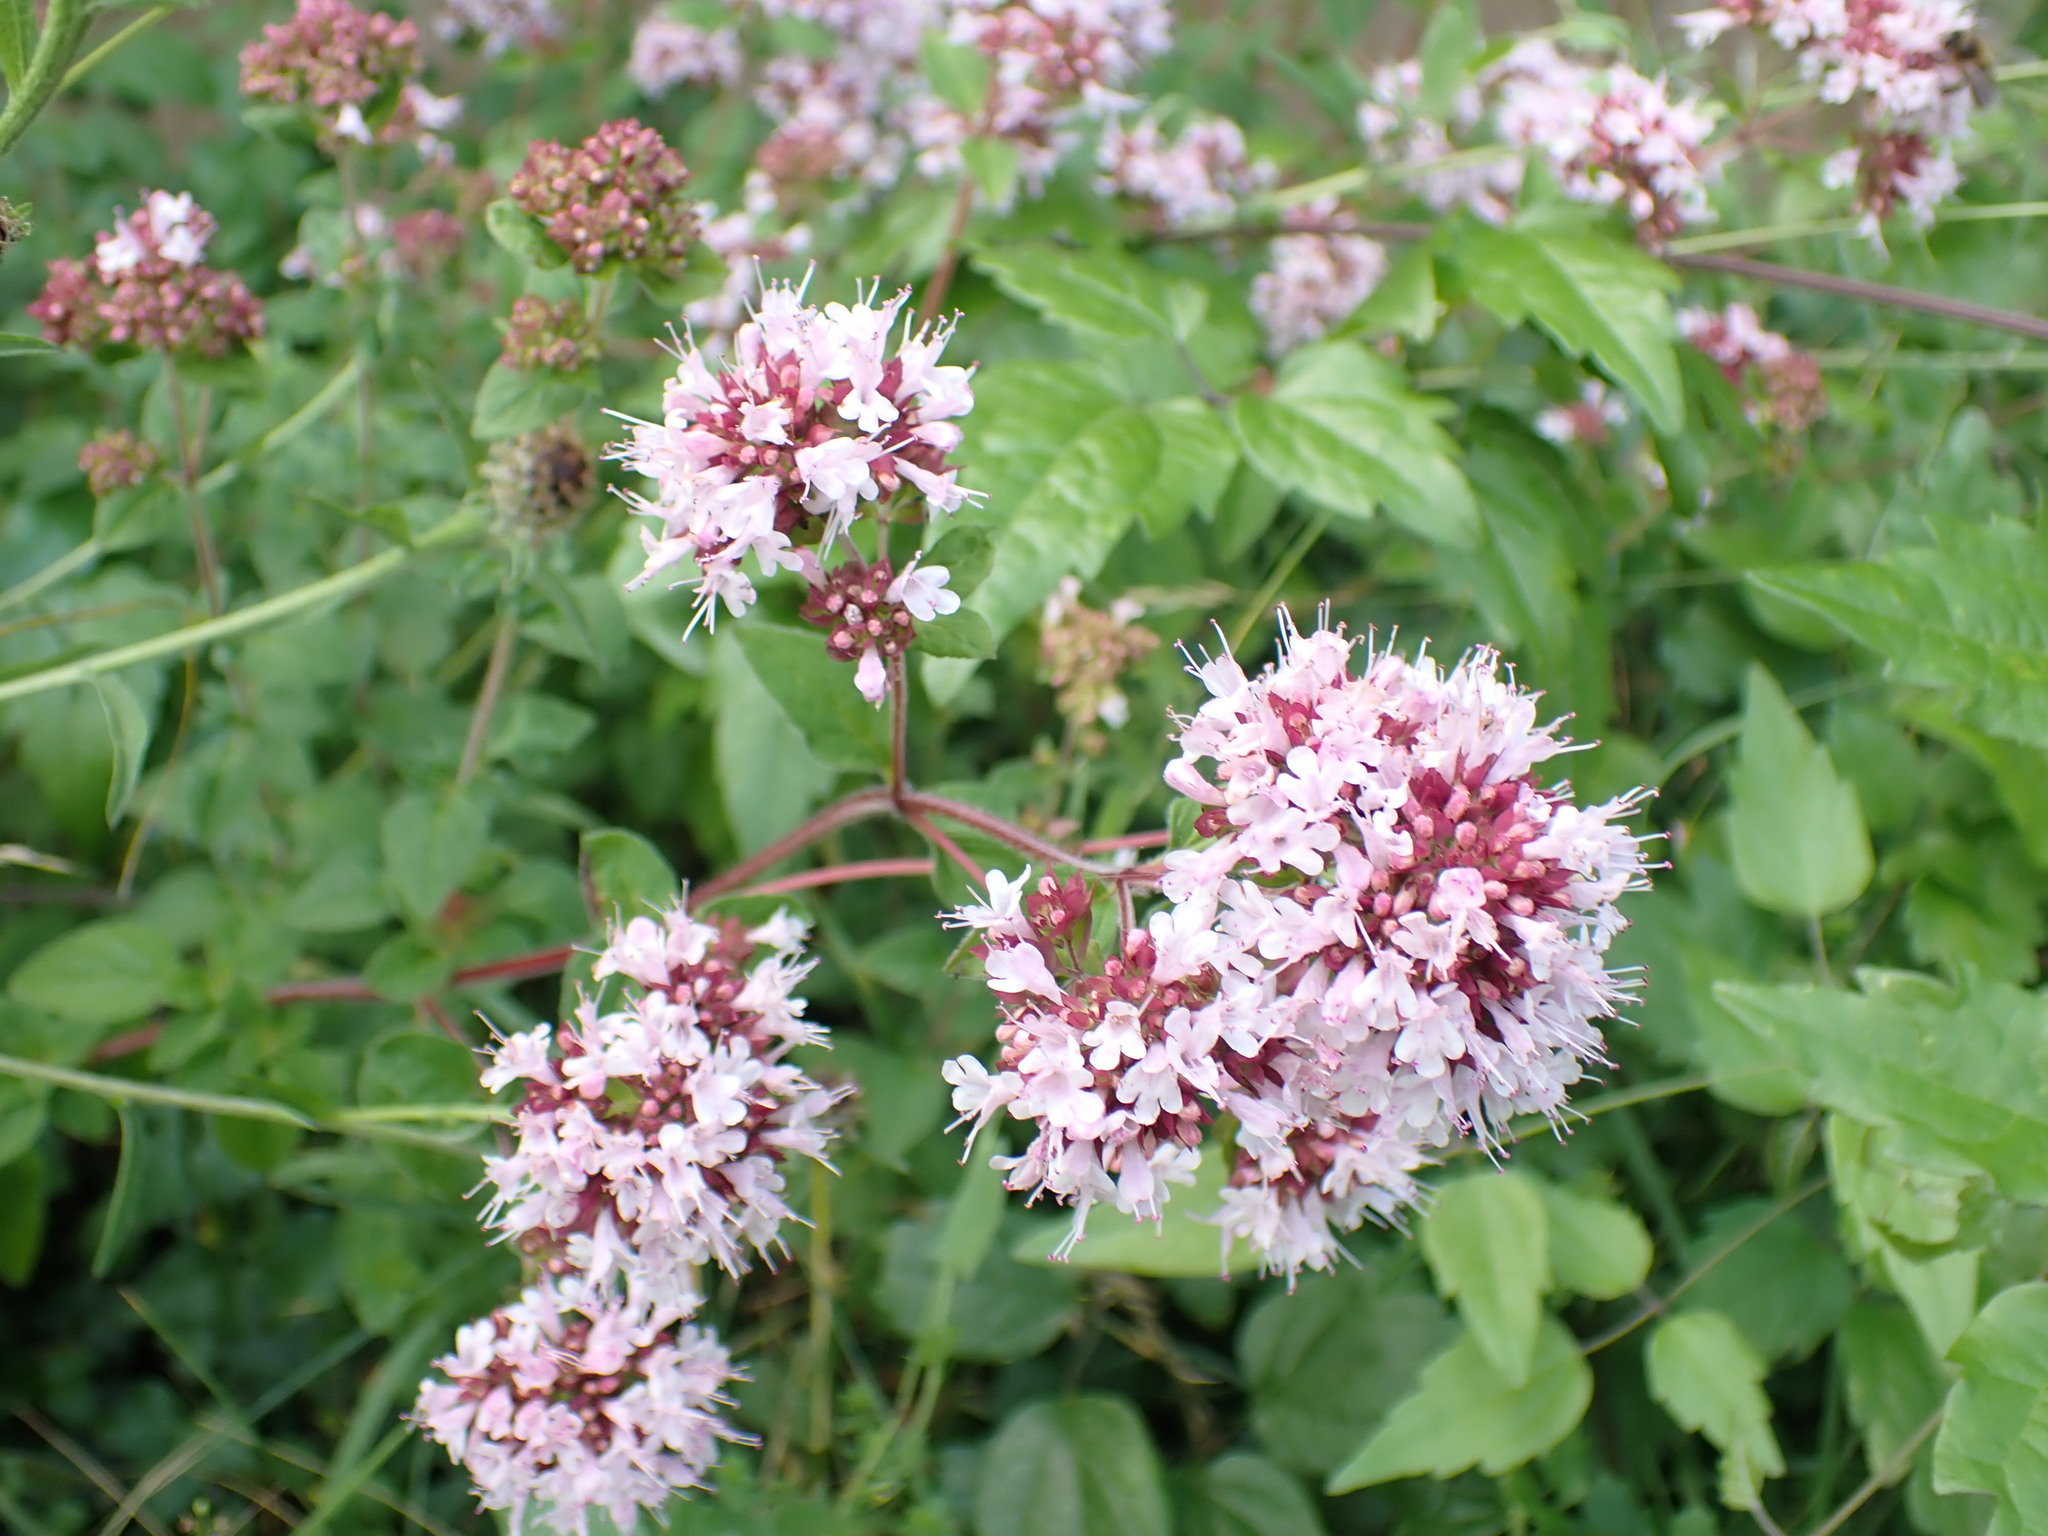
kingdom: Plantae
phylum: Tracheophyta
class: Magnoliopsida
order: Lamiales
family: Lamiaceae
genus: Origanum
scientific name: Origanum vulgare
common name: Wild marjoram
